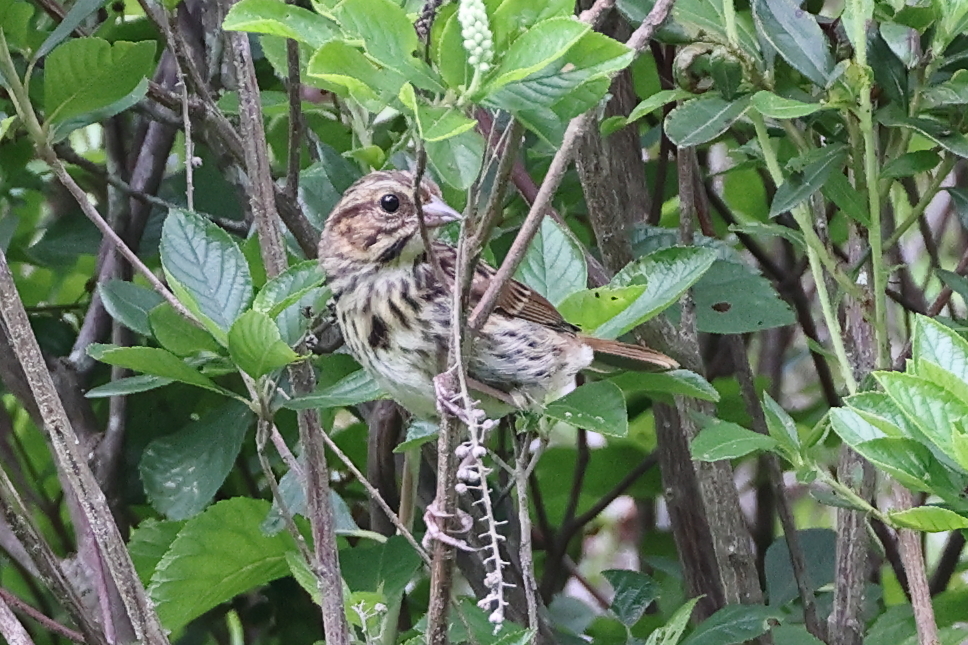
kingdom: Animalia
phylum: Chordata
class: Aves
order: Passeriformes
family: Passerellidae
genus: Melospiza
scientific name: Melospiza melodia
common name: Song sparrow
